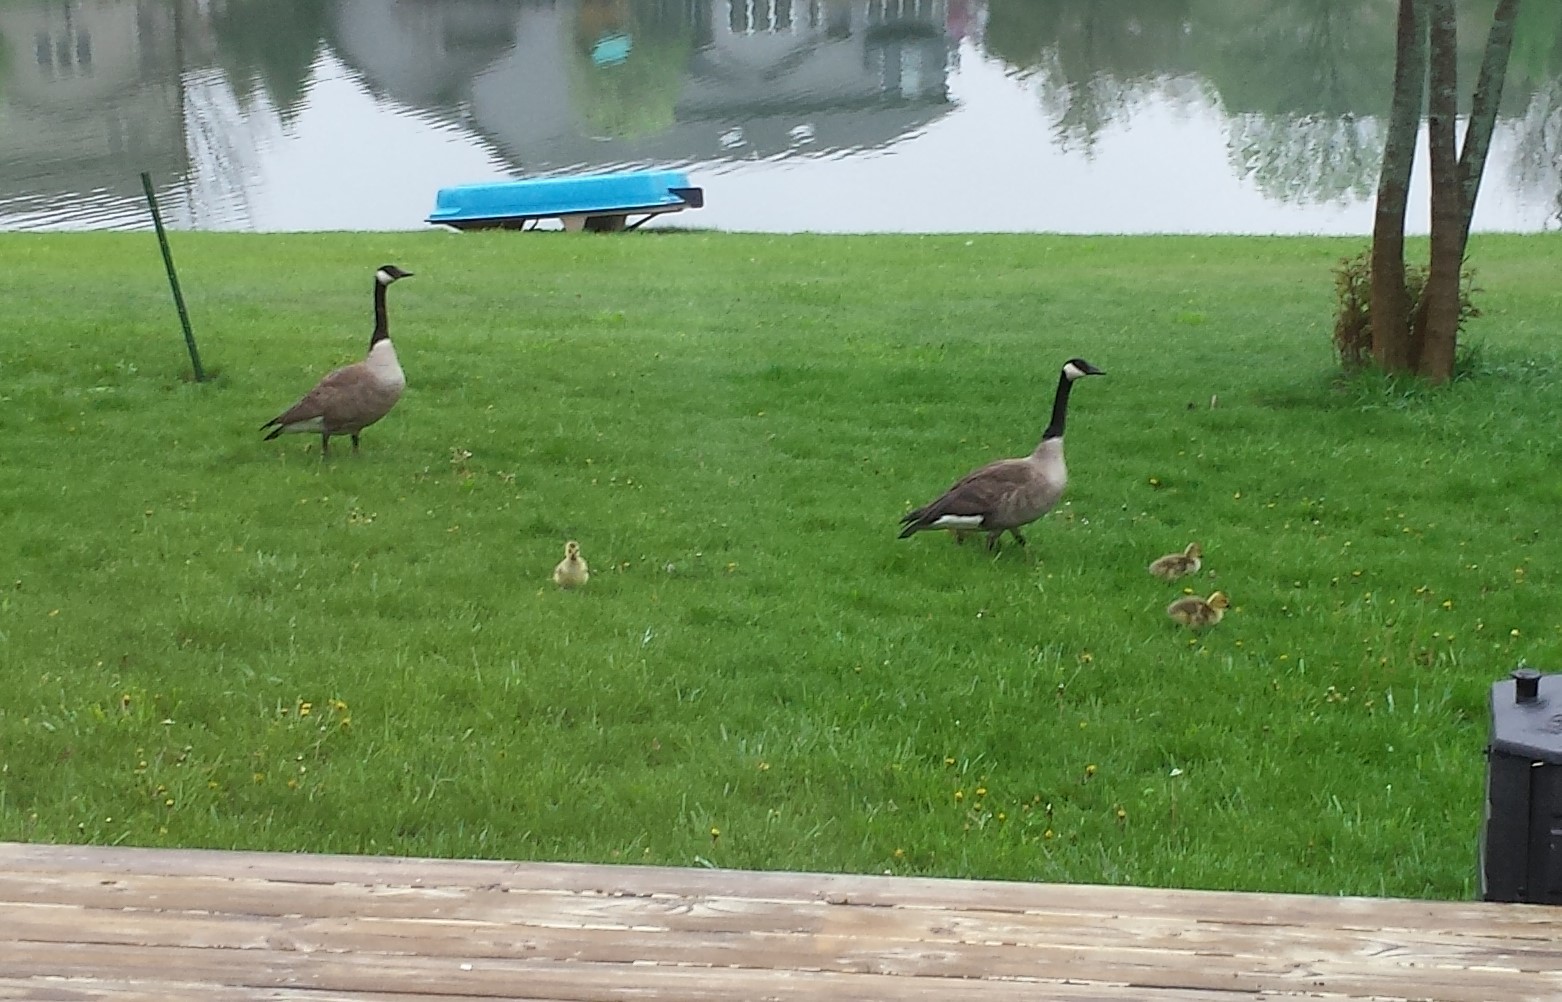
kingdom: Animalia
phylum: Chordata
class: Aves
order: Anseriformes
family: Anatidae
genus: Branta
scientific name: Branta canadensis
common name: Canada goose
